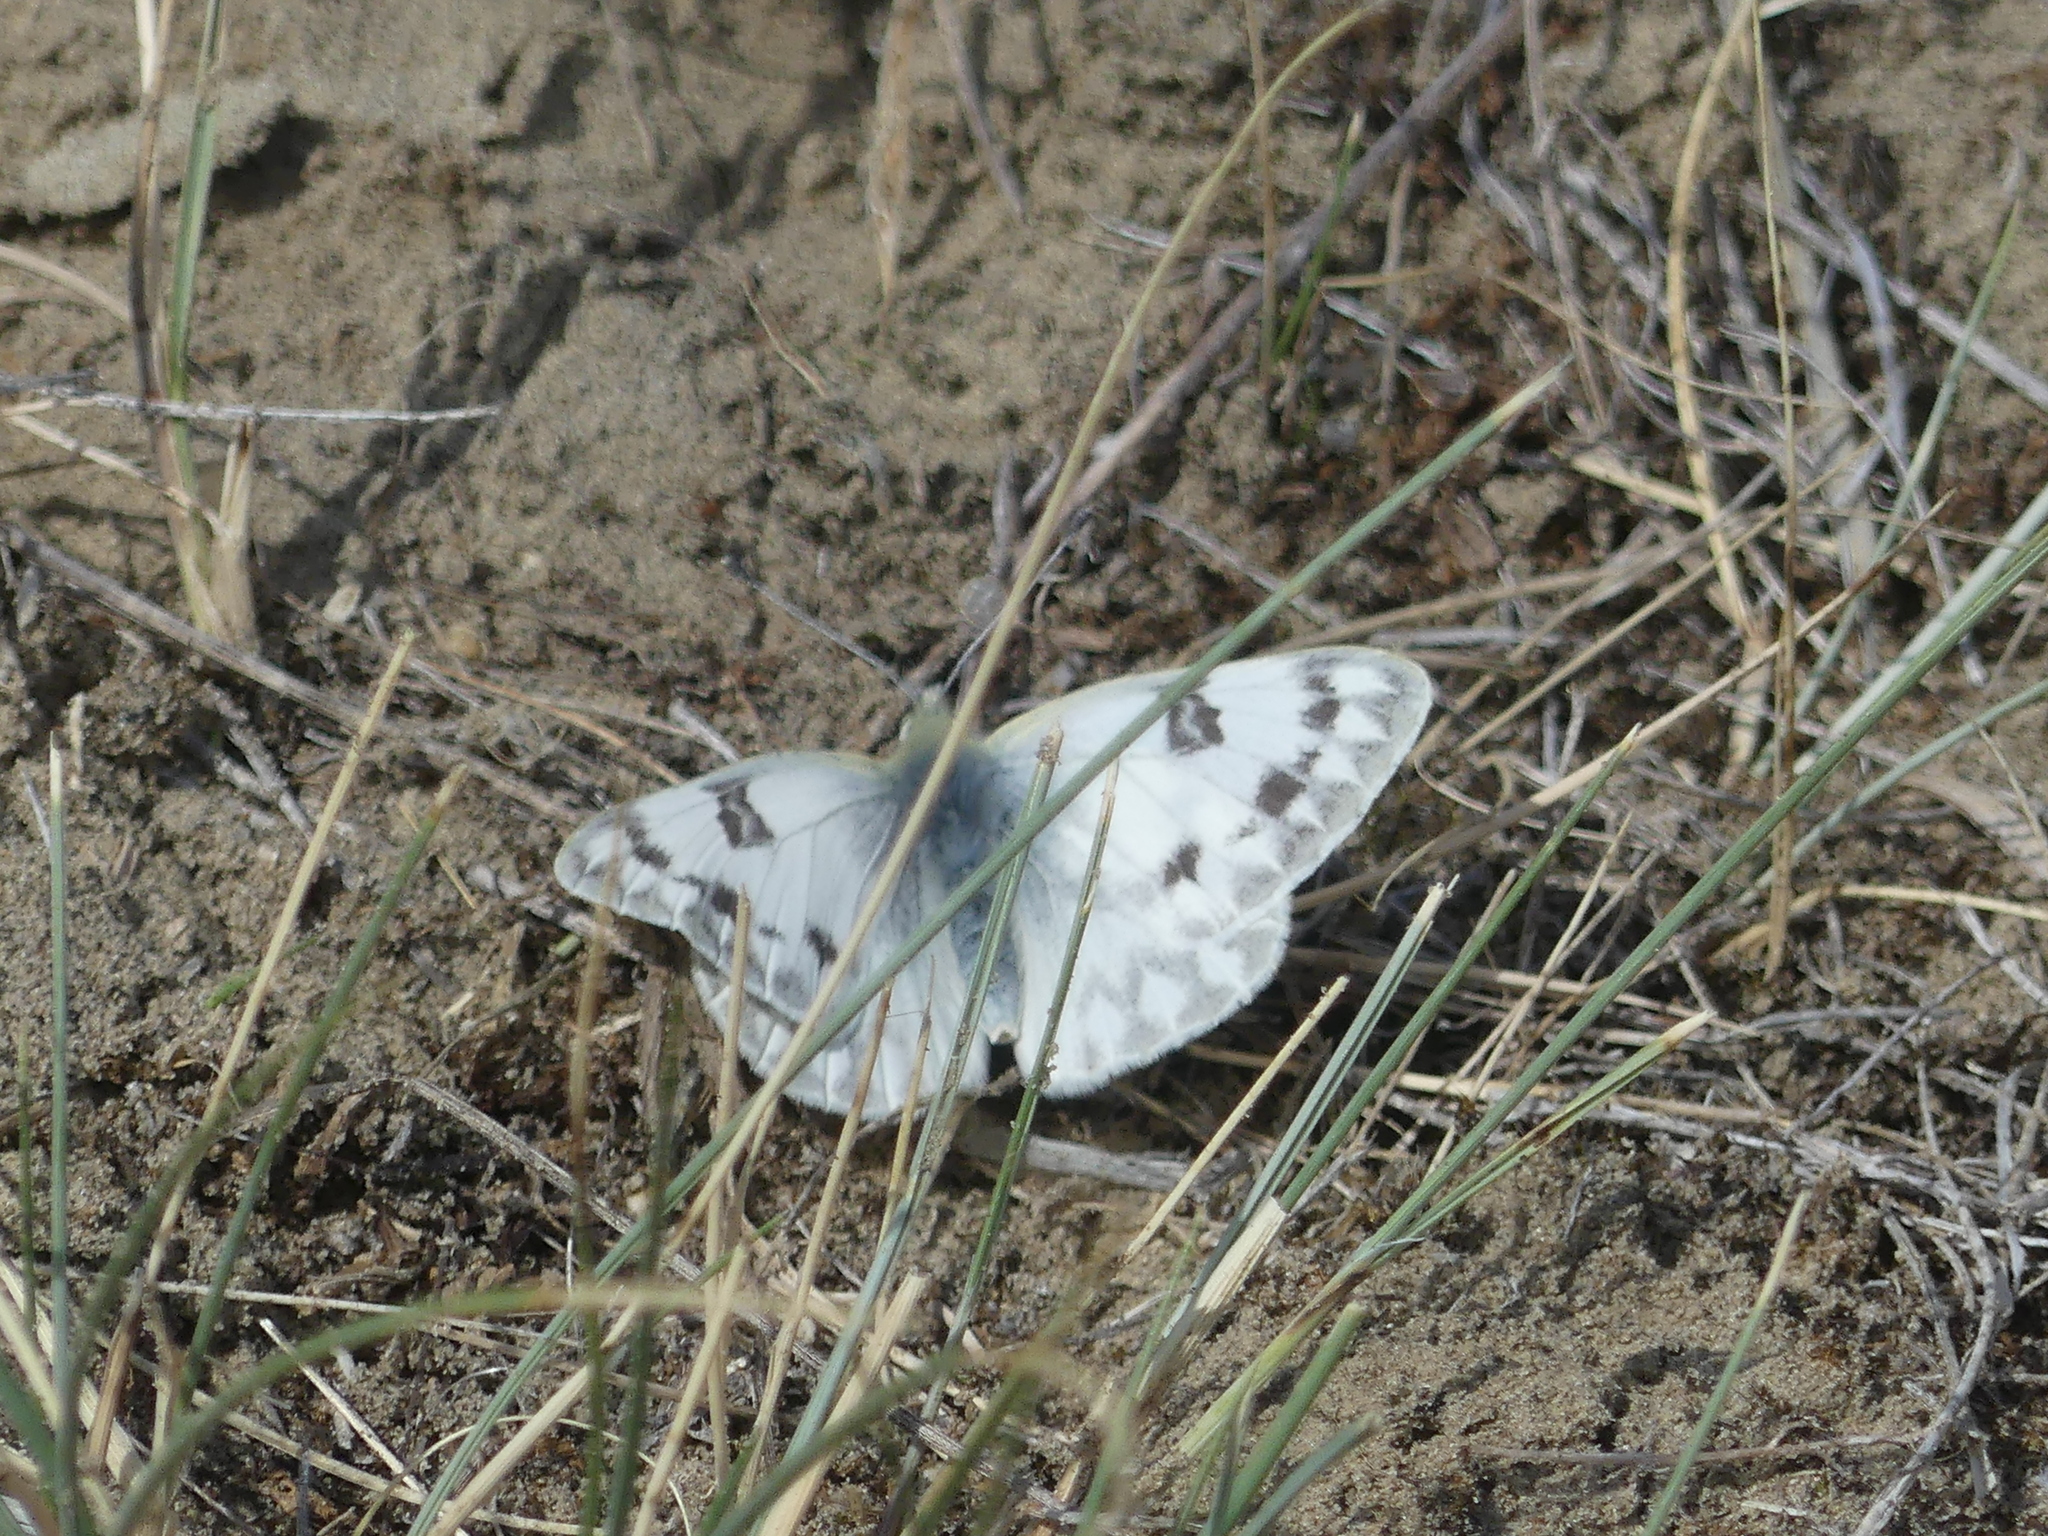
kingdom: Animalia
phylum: Arthropoda
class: Insecta
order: Lepidoptera
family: Pieridae
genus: Pontia
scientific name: Pontia occidentalis
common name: Western white
